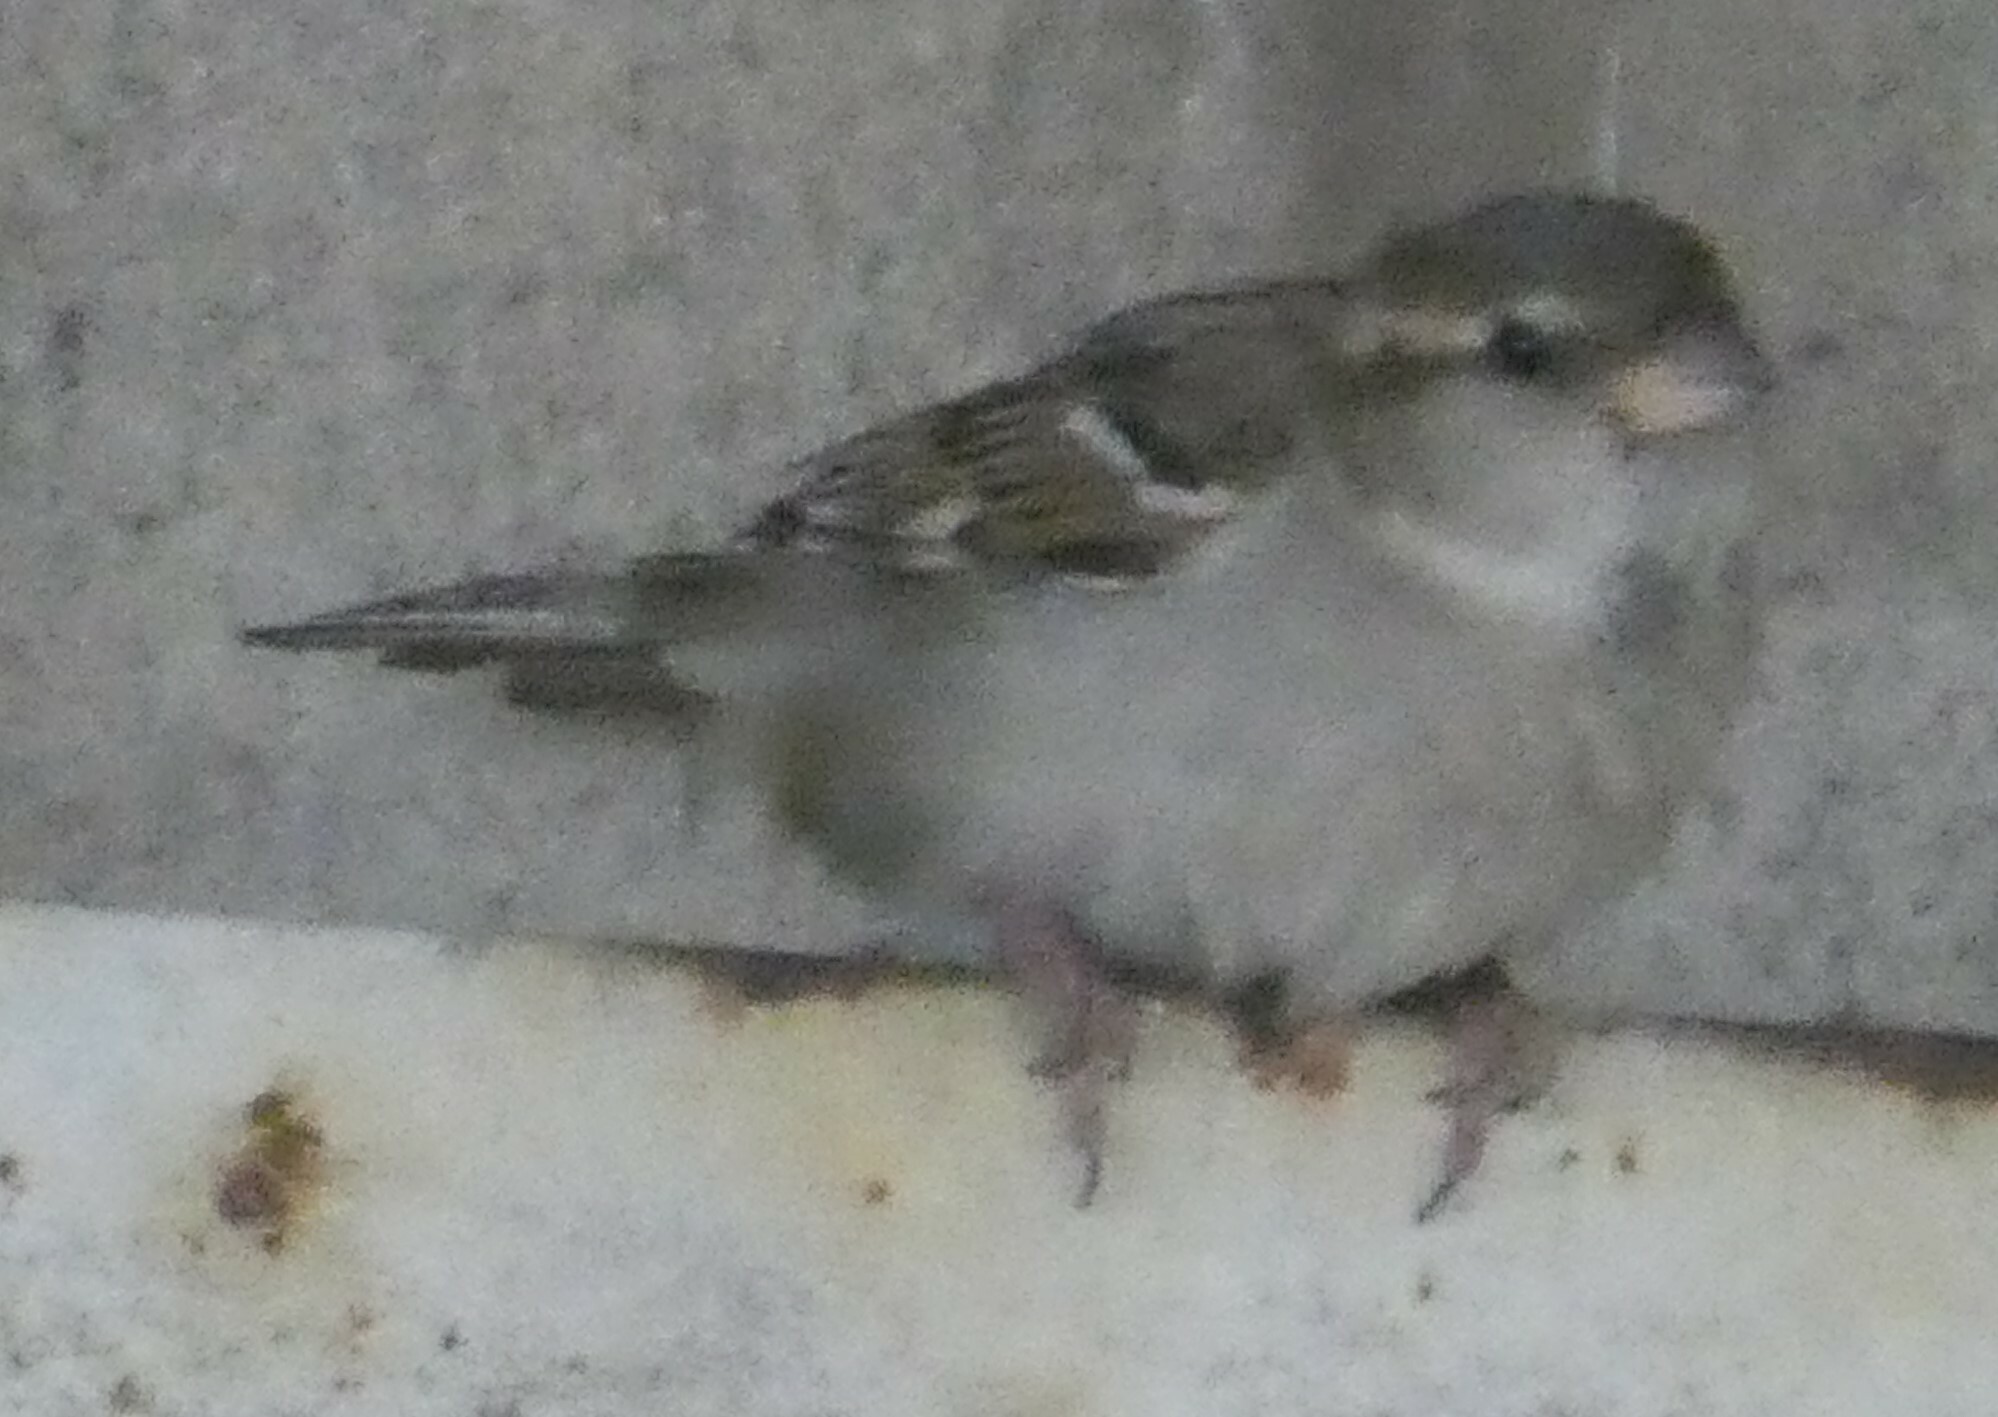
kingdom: Animalia
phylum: Chordata
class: Aves
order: Passeriformes
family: Passeridae
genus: Passer
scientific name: Passer domesticus
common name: House sparrow
